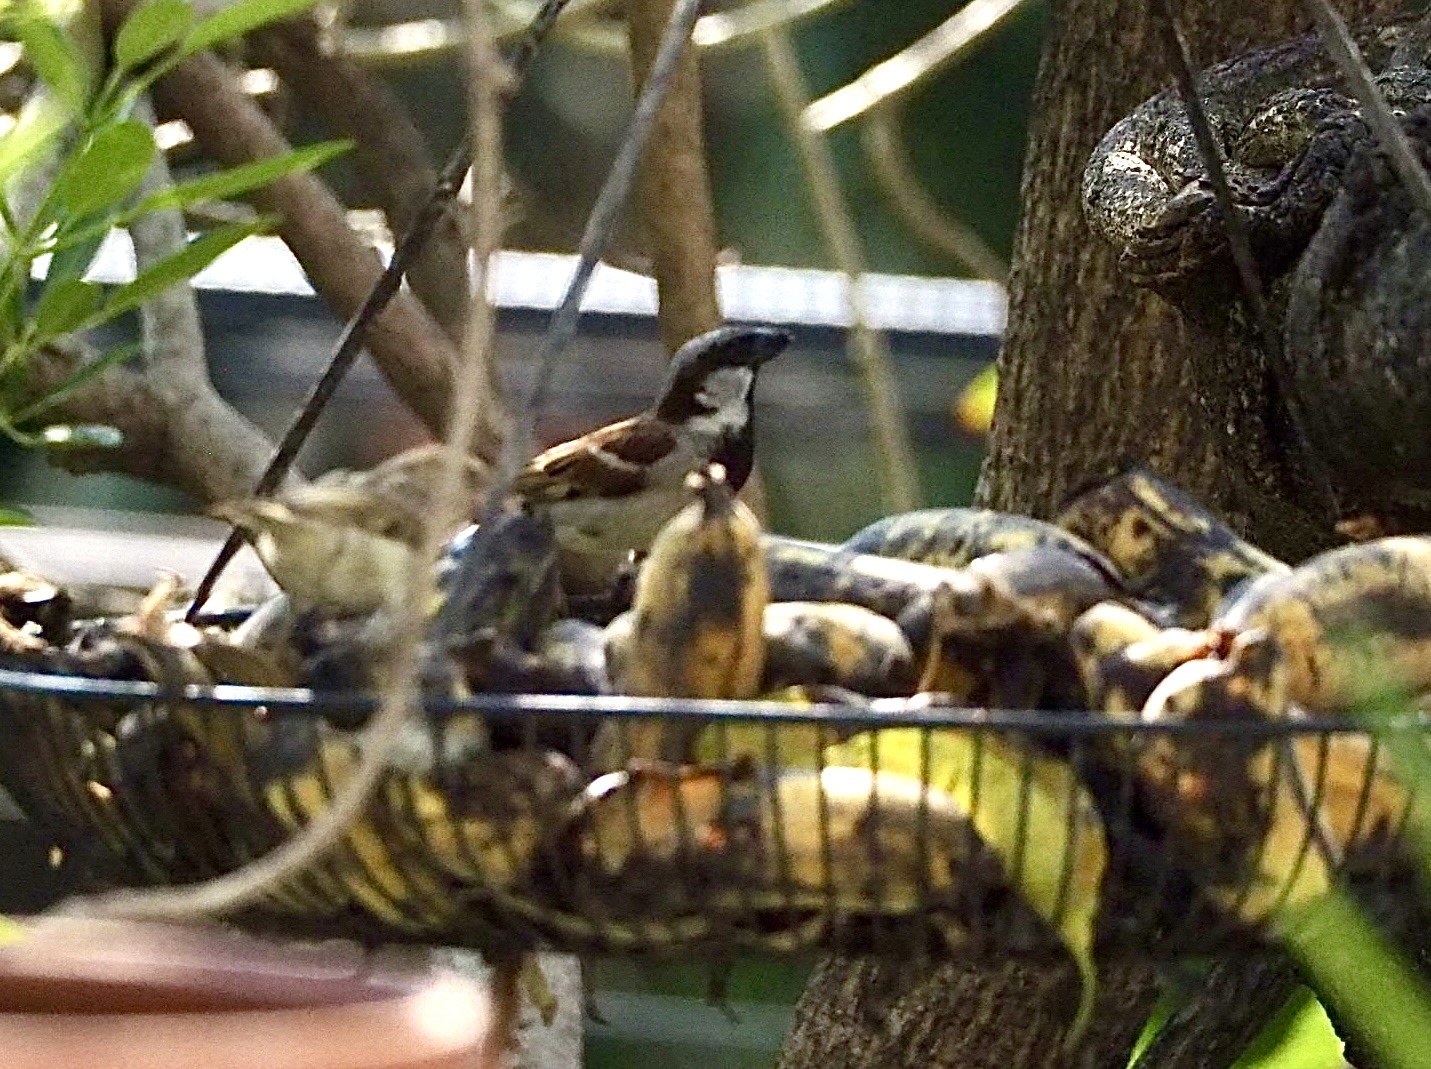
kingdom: Animalia
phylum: Chordata
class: Aves
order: Passeriformes
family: Passeridae
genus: Passer
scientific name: Passer domesticus
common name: House sparrow
